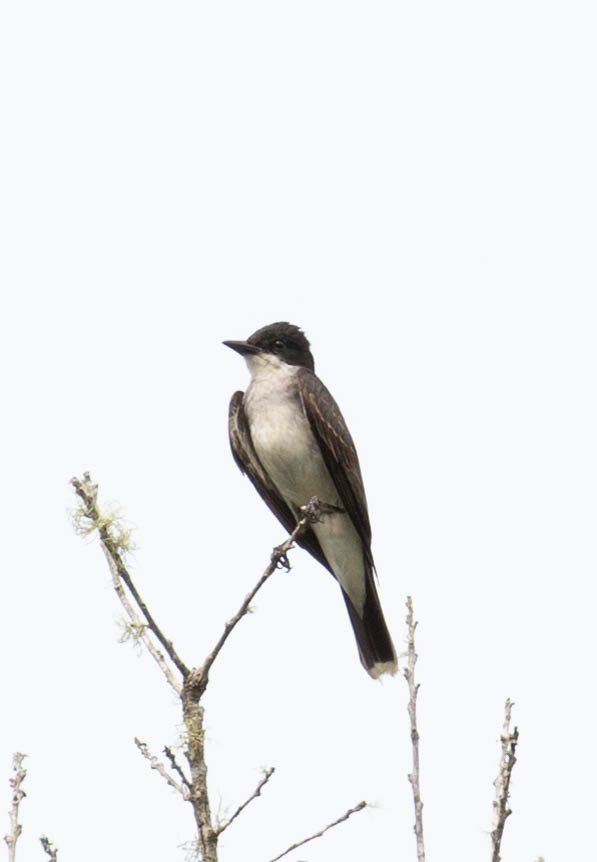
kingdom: Animalia
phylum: Chordata
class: Aves
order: Passeriformes
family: Tyrannidae
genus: Tyrannus
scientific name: Tyrannus tyrannus
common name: Eastern kingbird
